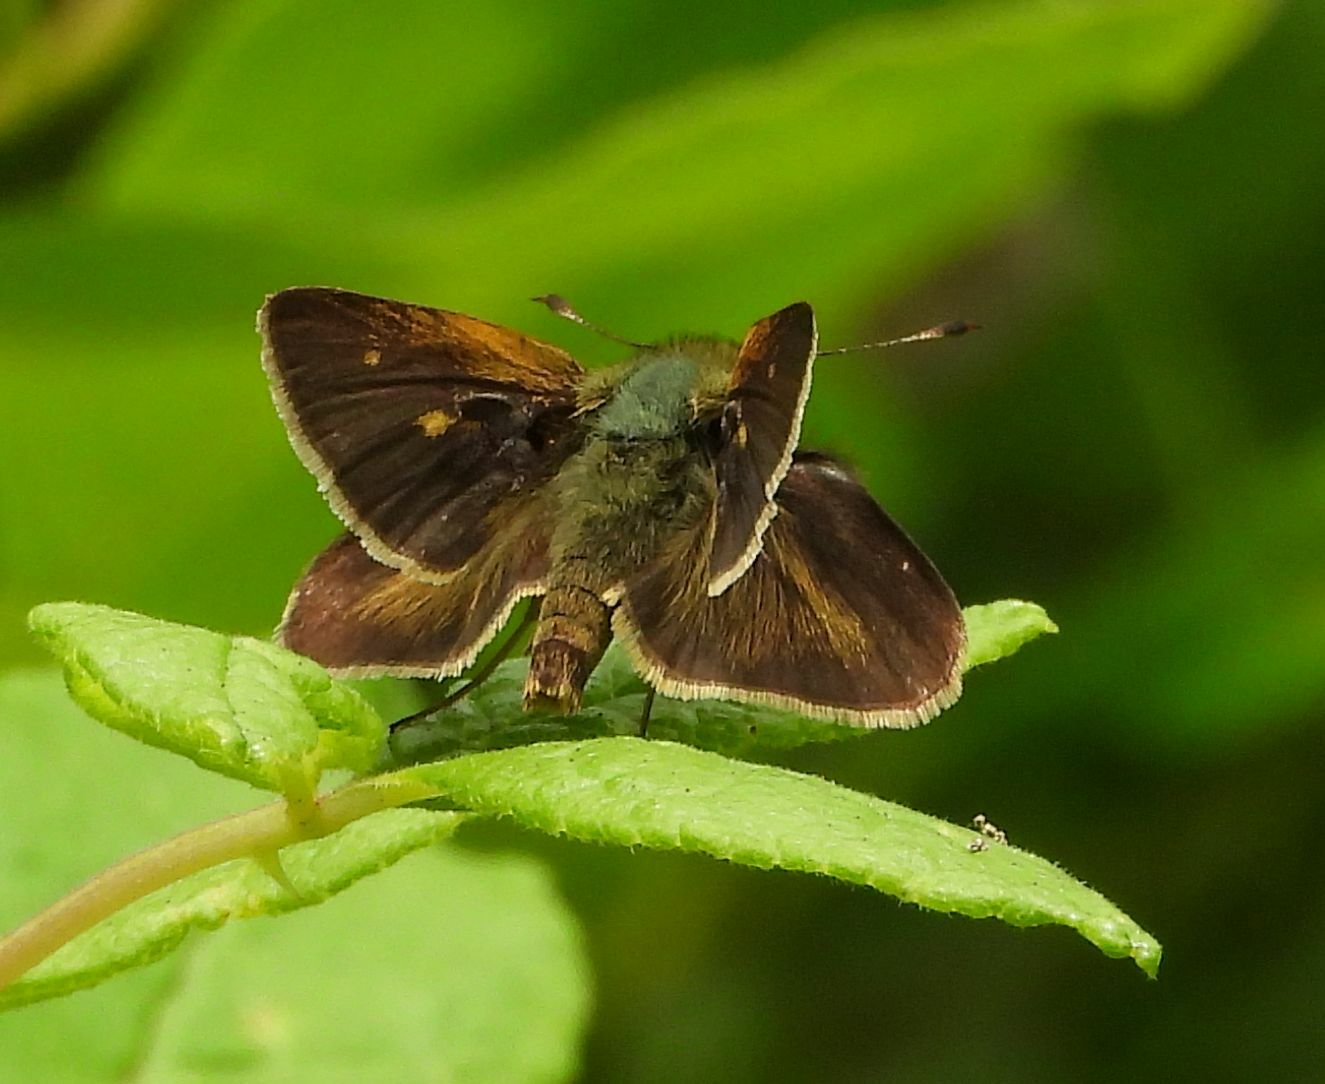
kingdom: Animalia
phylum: Arthropoda
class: Insecta
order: Lepidoptera
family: Hesperiidae
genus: Polites
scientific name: Polites egeremet
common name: Northern broken-dash
